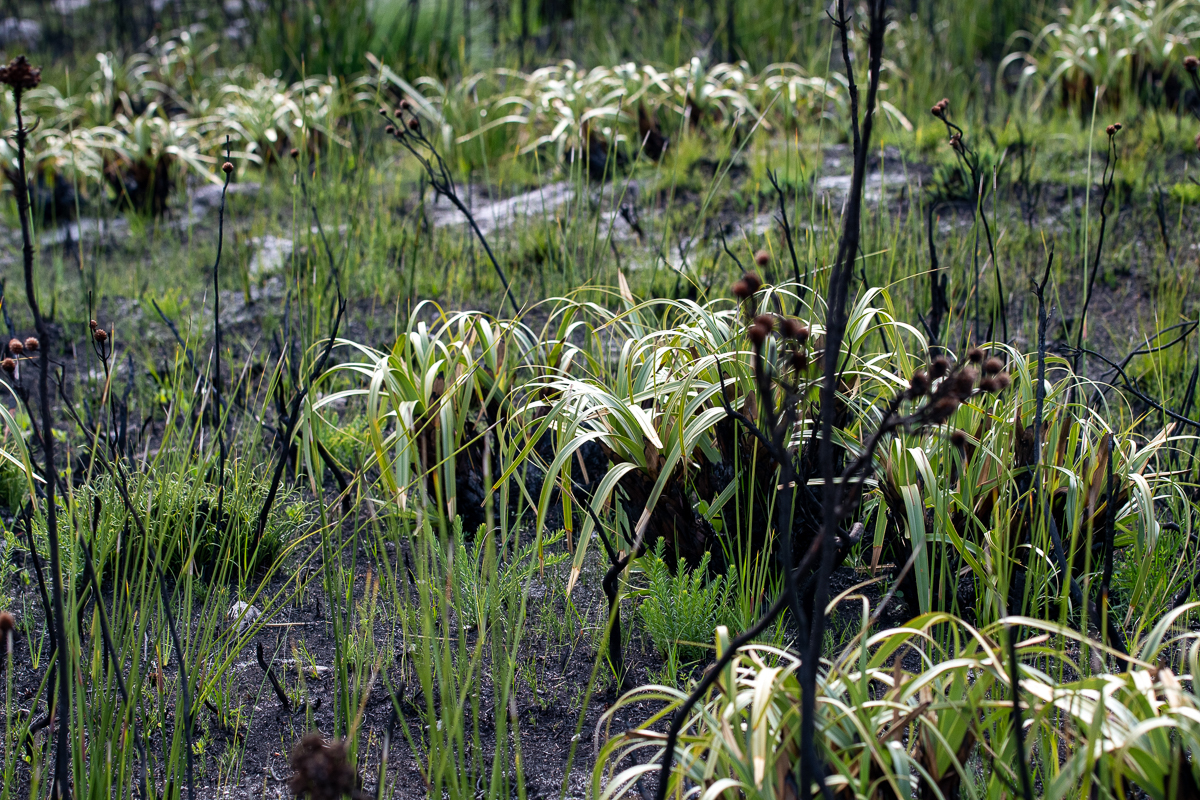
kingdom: Plantae
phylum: Tracheophyta
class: Liliopsida
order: Poales
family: Cyperaceae
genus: Tetraria
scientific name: Tetraria thermalis
